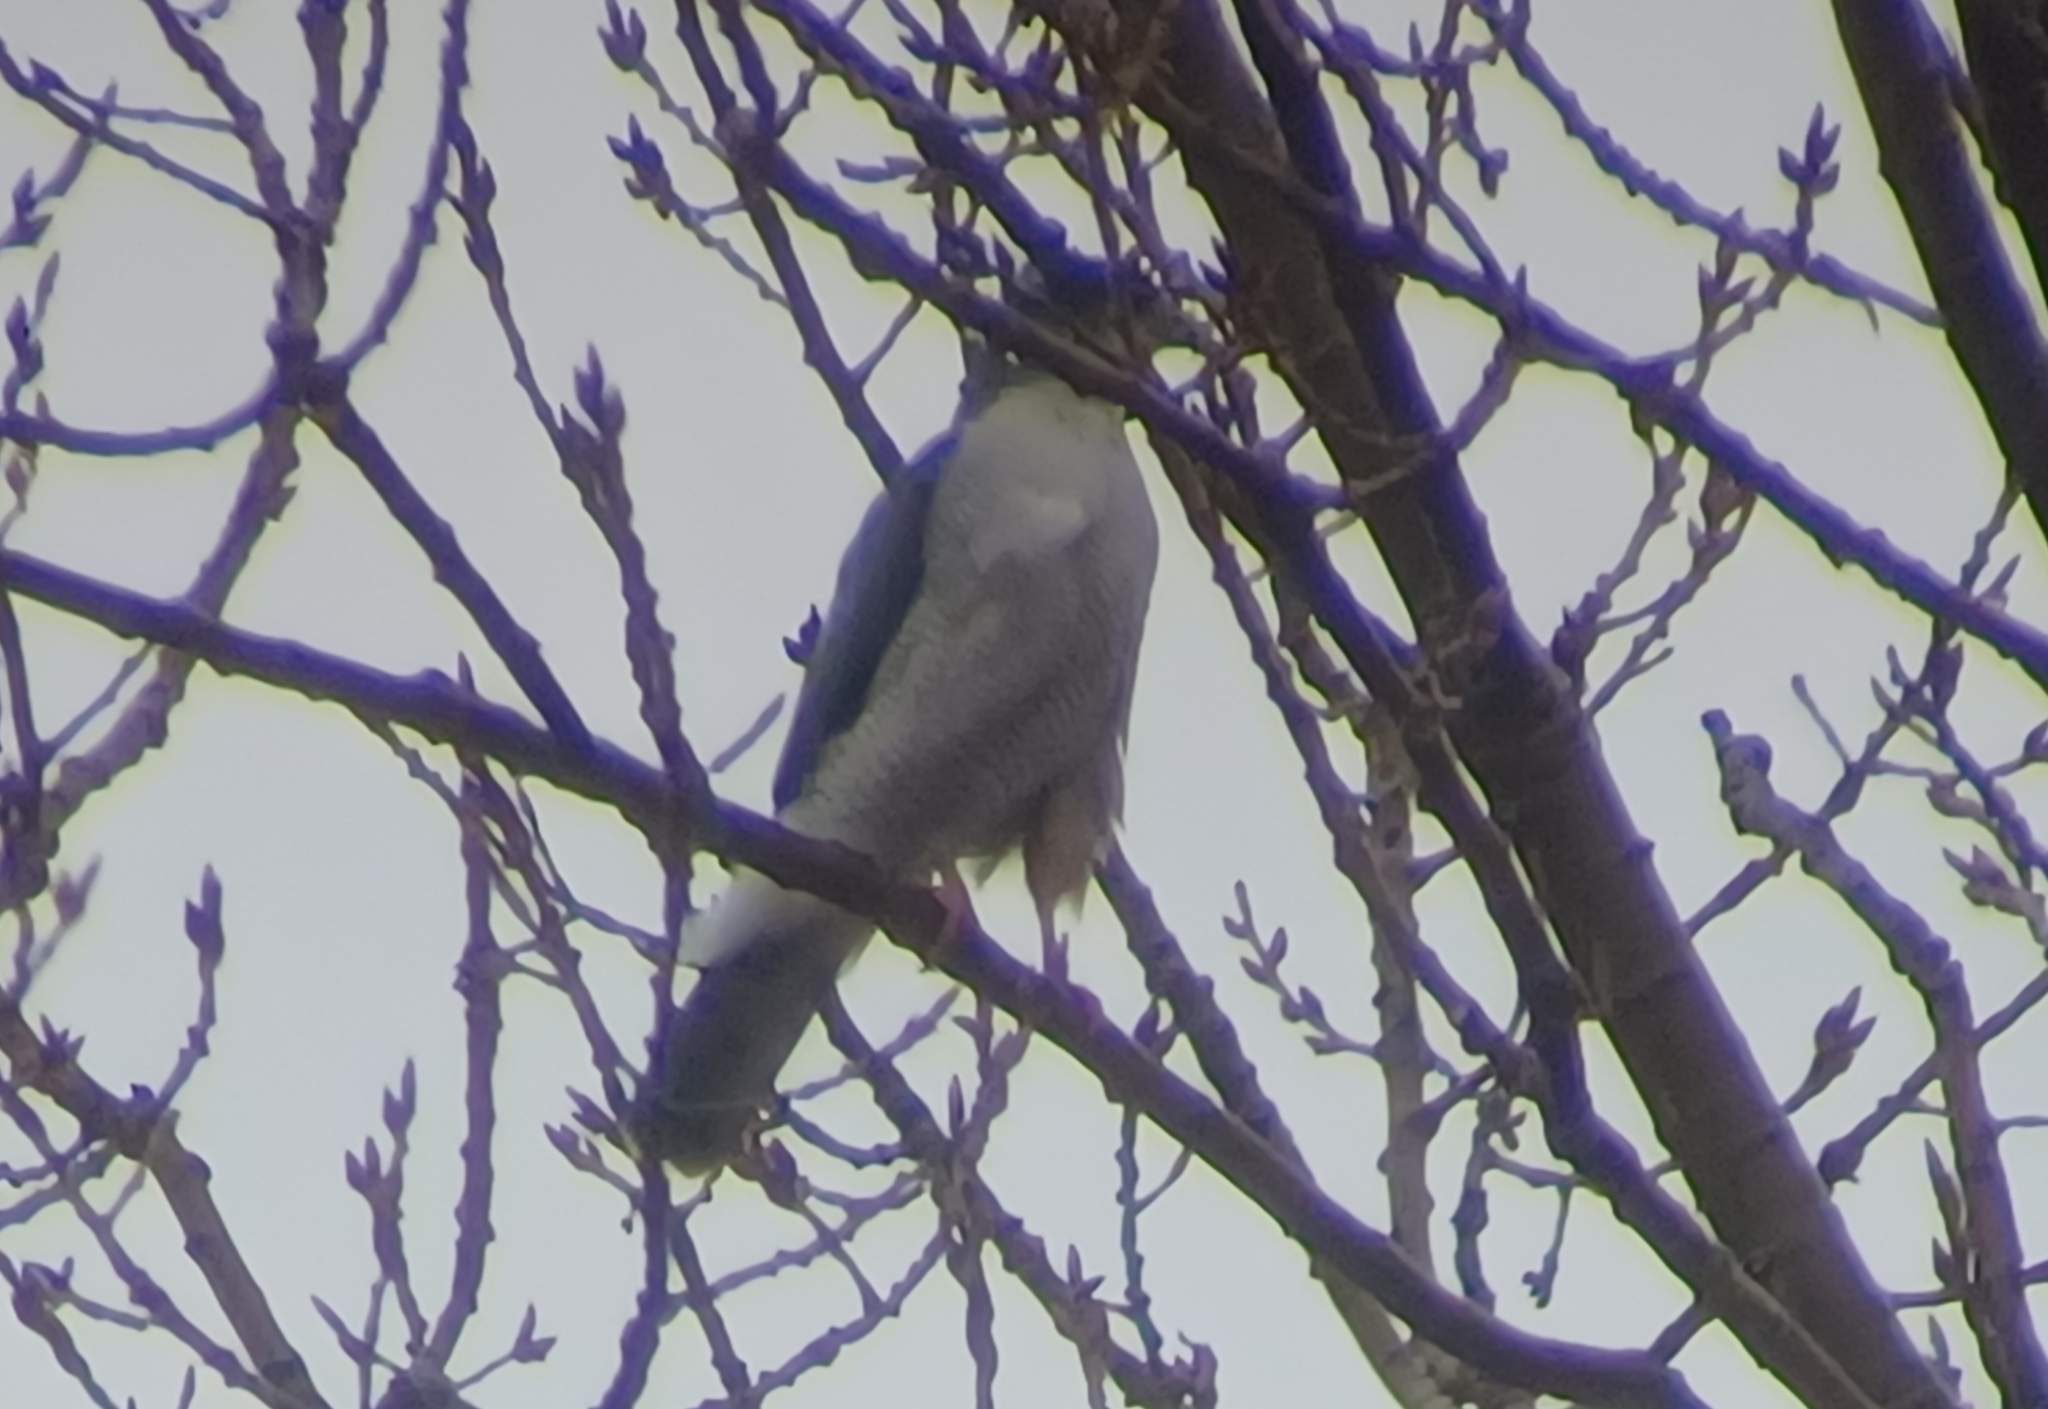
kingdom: Animalia
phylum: Chordata
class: Aves
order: Accipitriformes
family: Accipitridae
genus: Accipiter
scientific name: Accipiter
